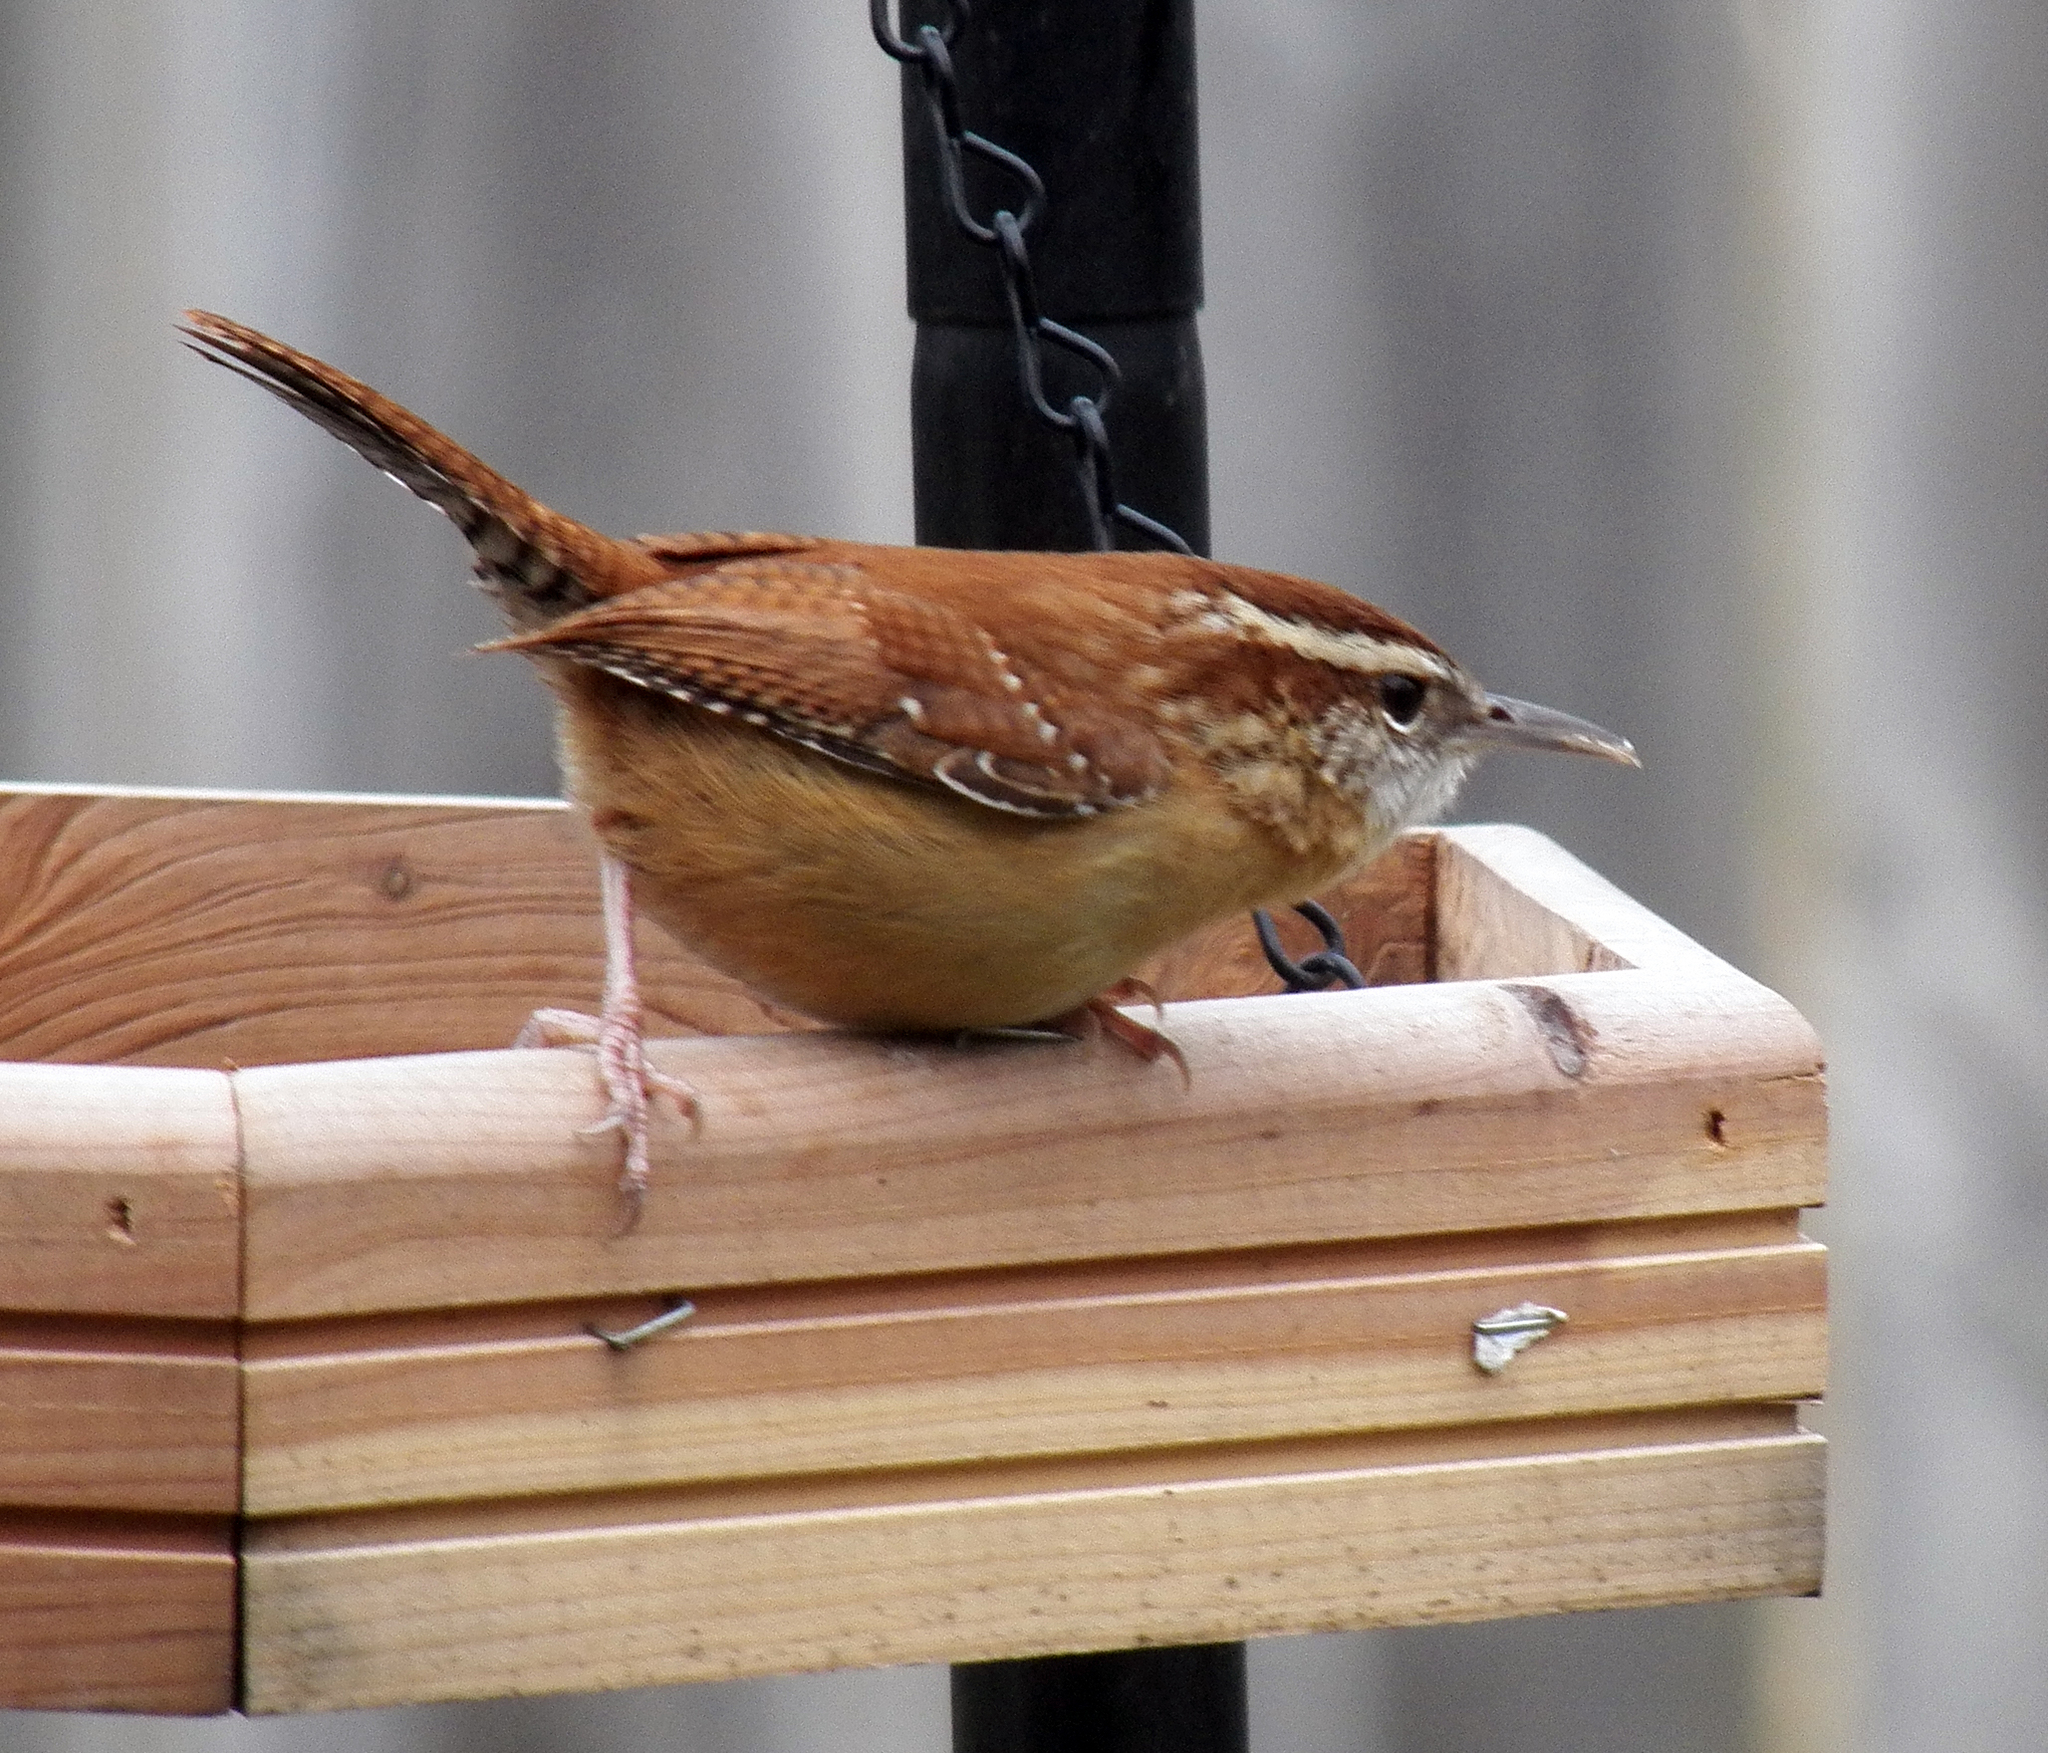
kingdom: Animalia
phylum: Chordata
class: Aves
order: Passeriformes
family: Troglodytidae
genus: Thryothorus
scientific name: Thryothorus ludovicianus
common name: Carolina wren
